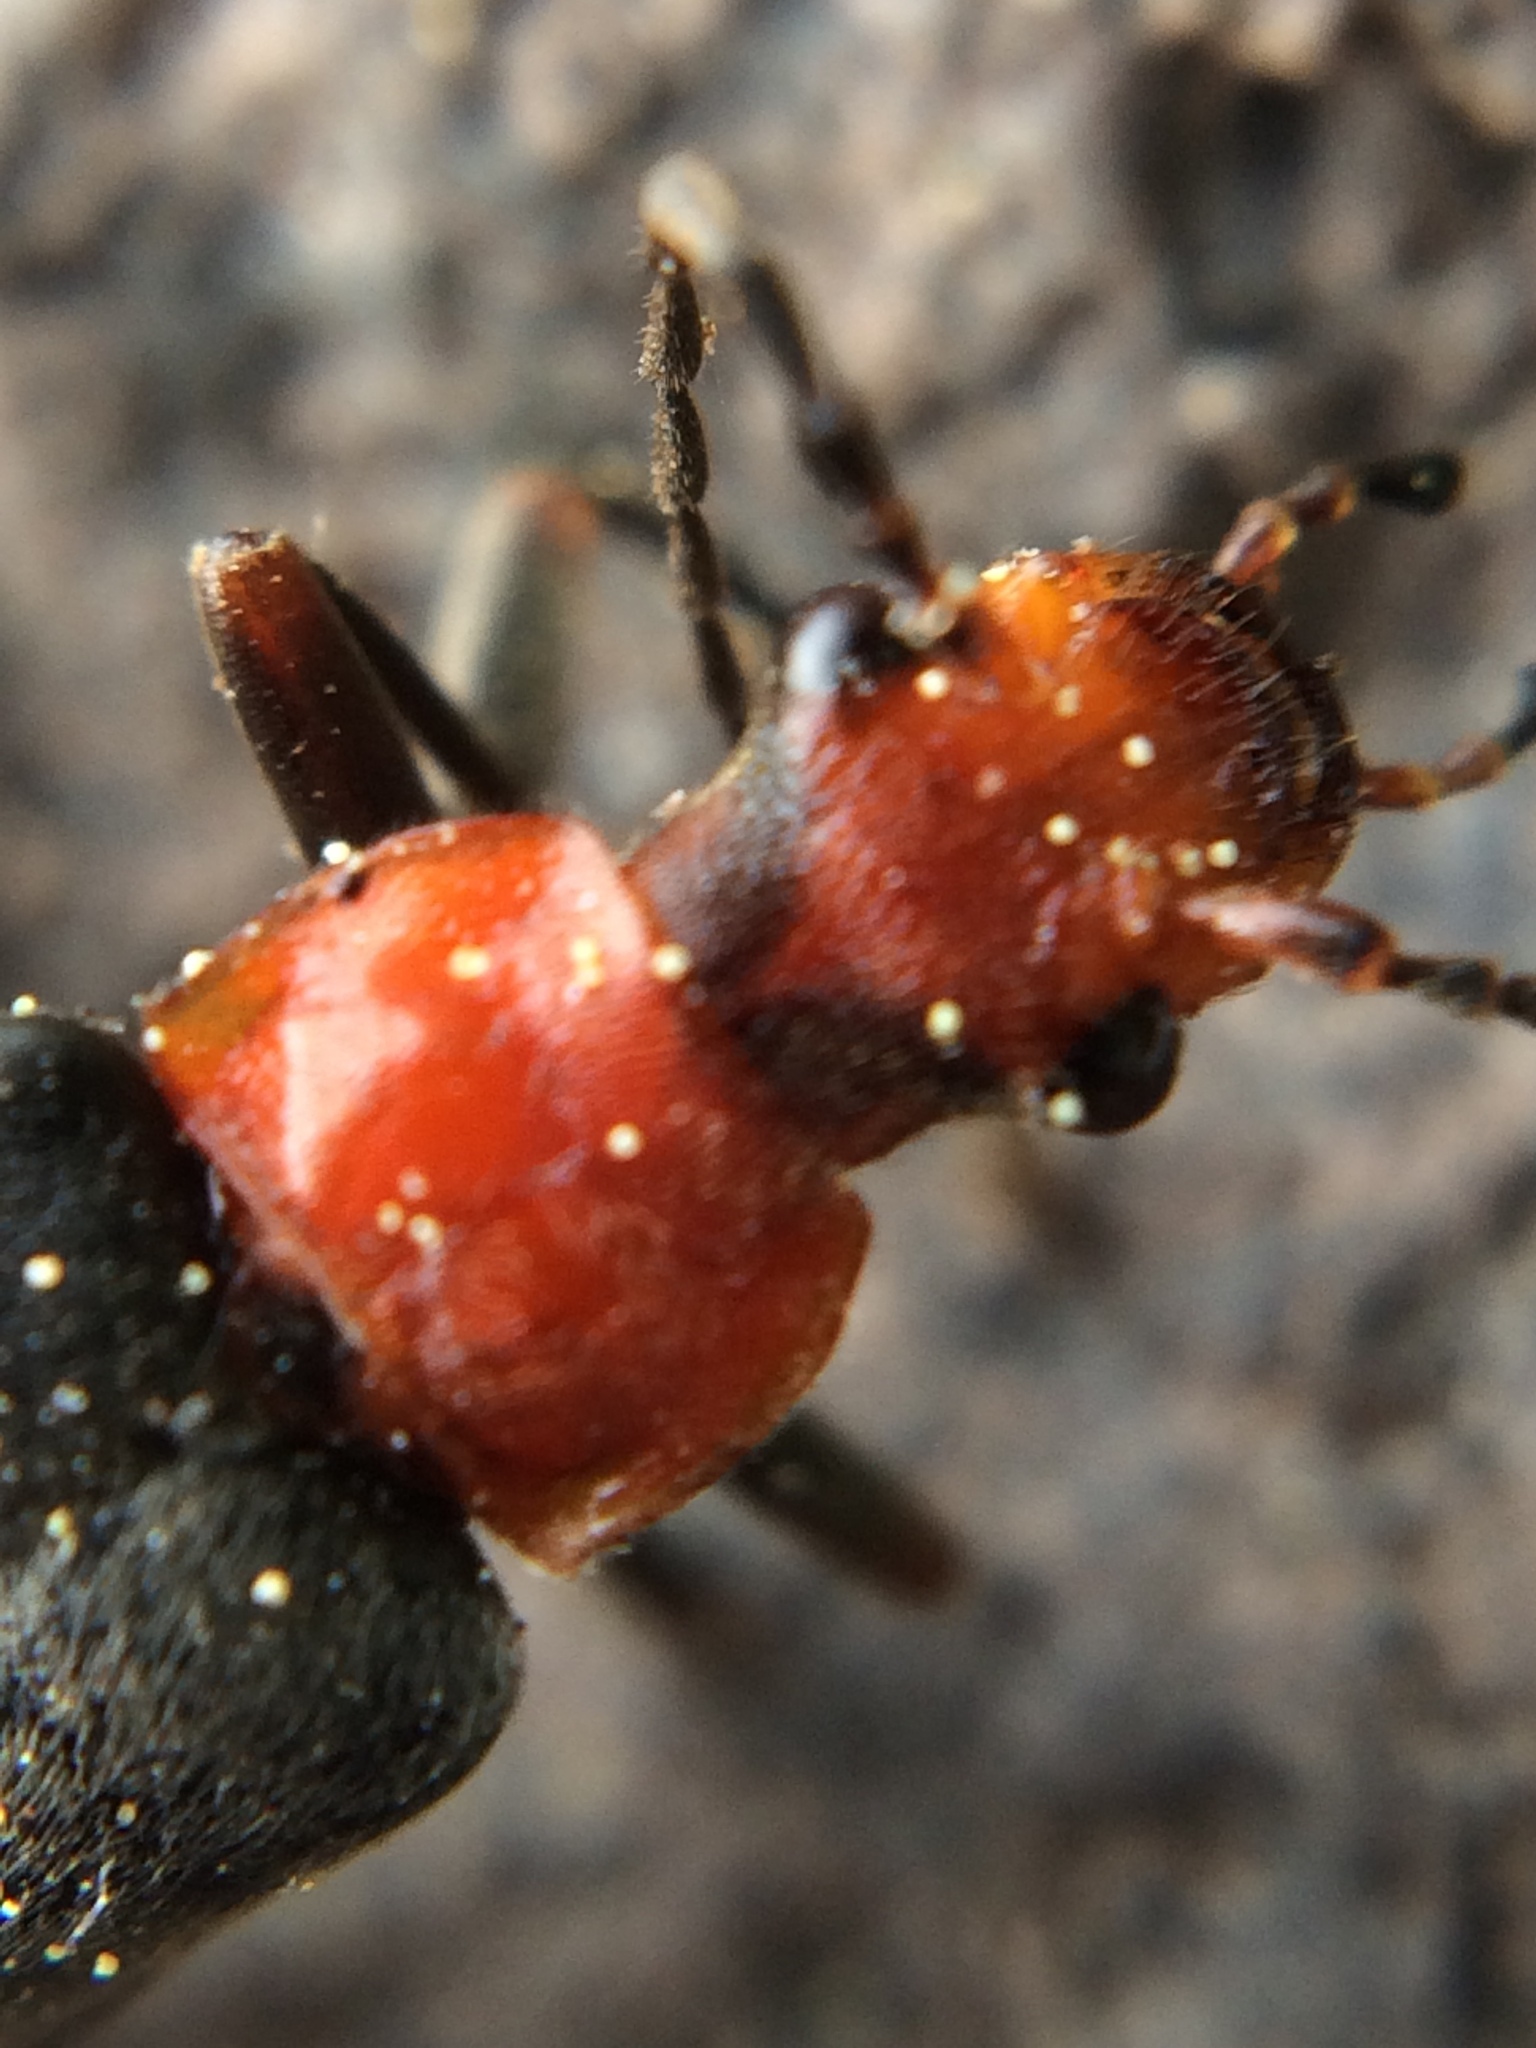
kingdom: Animalia
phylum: Arthropoda
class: Insecta
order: Coleoptera
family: Cantharidae
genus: Podabrus
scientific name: Podabrus pruinosus
